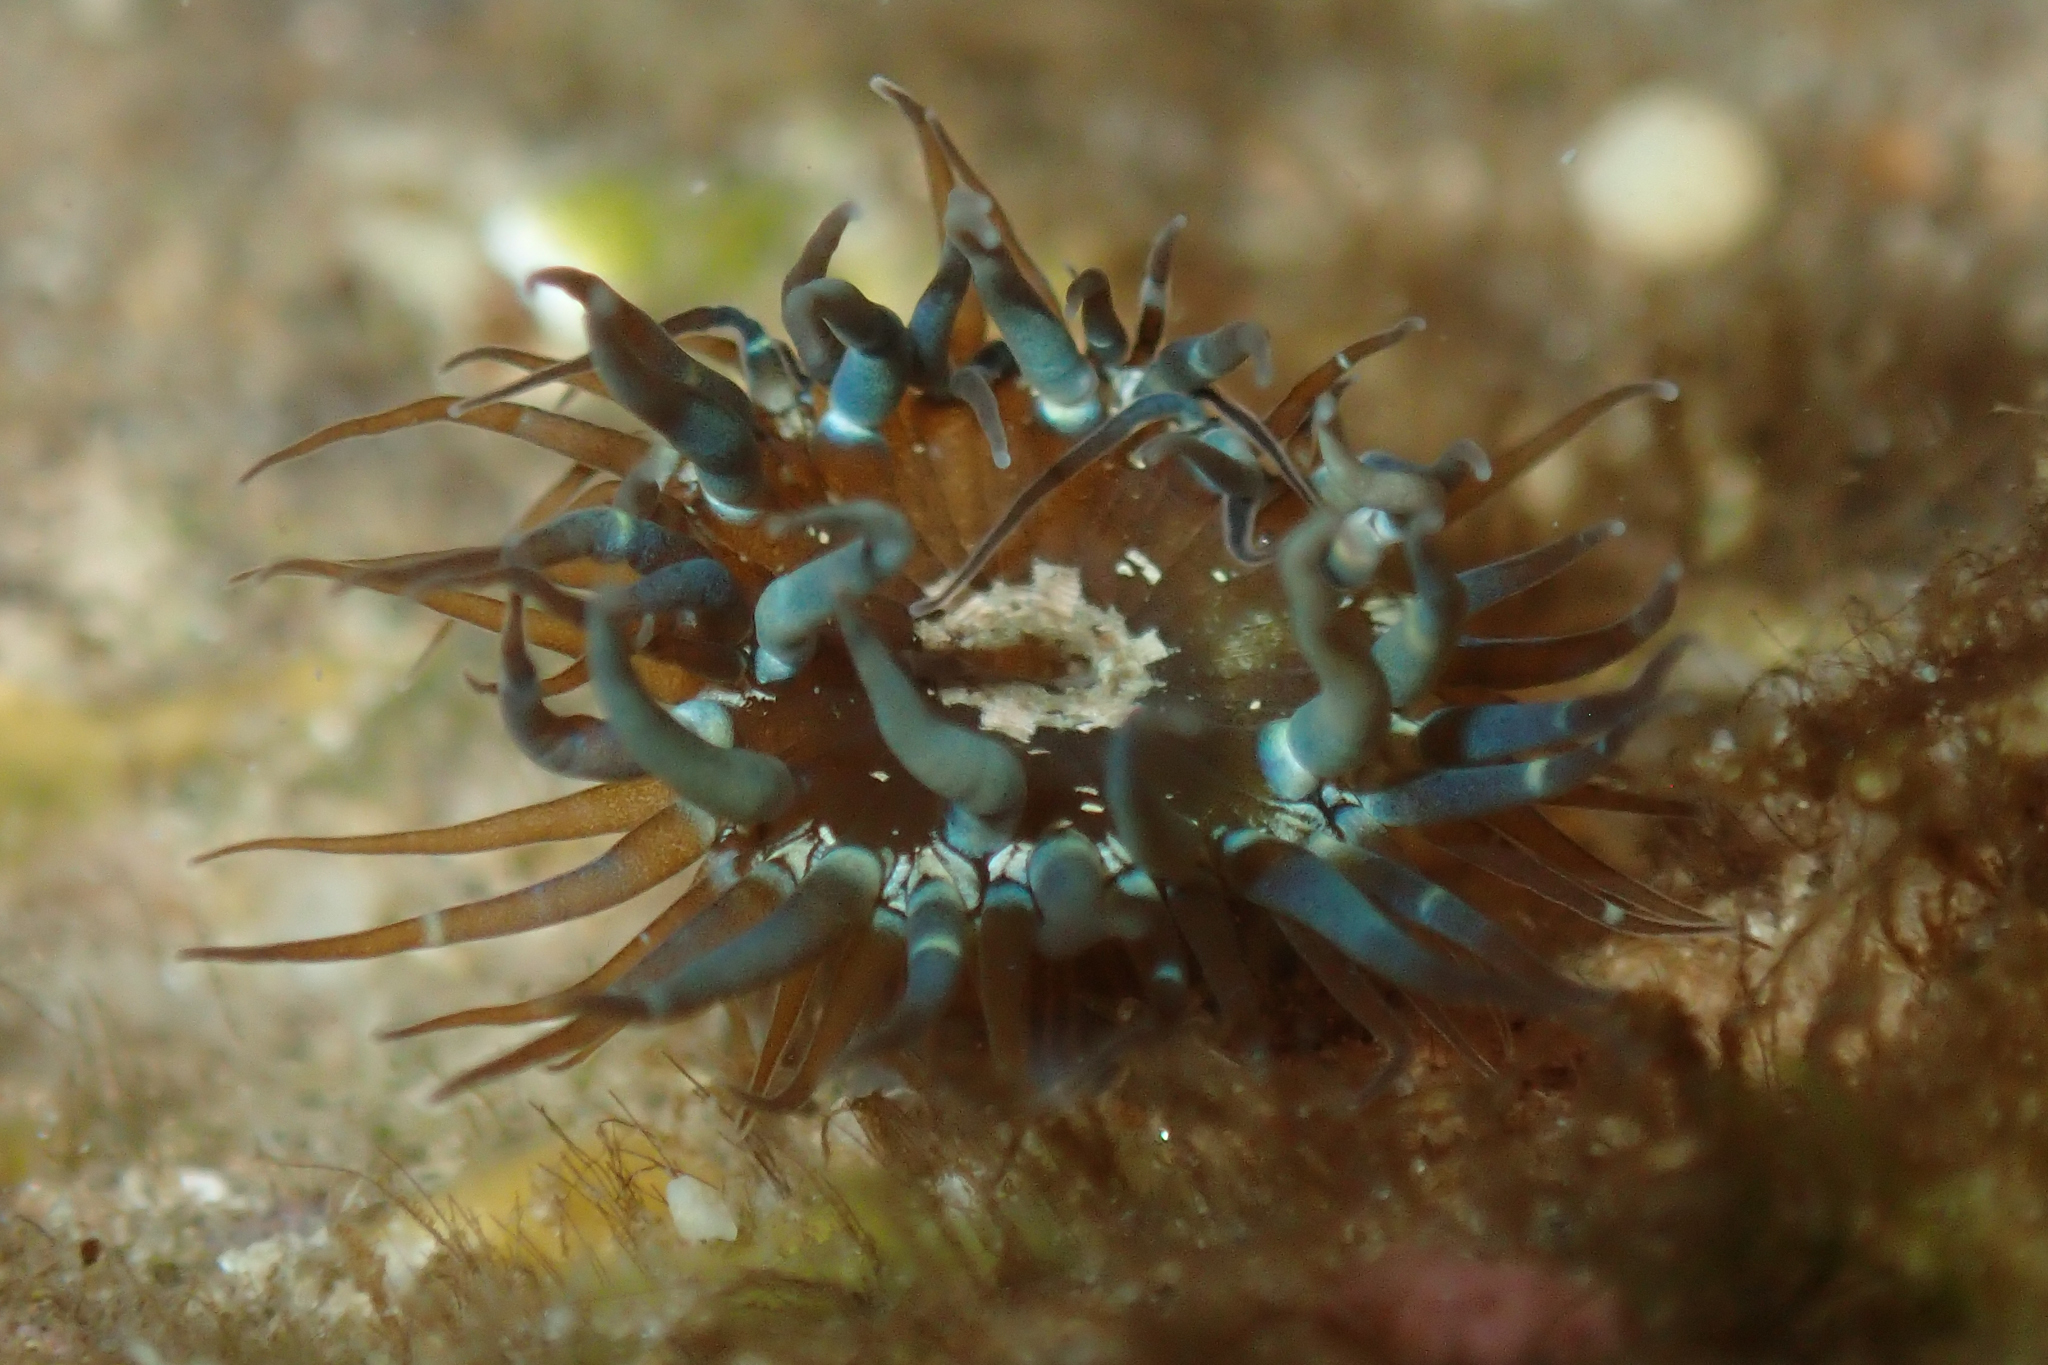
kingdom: Animalia
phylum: Cnidaria
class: Anthozoa
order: Actiniaria
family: Aiptasiidae
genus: Exaiptasia
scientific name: Exaiptasia diaphana
